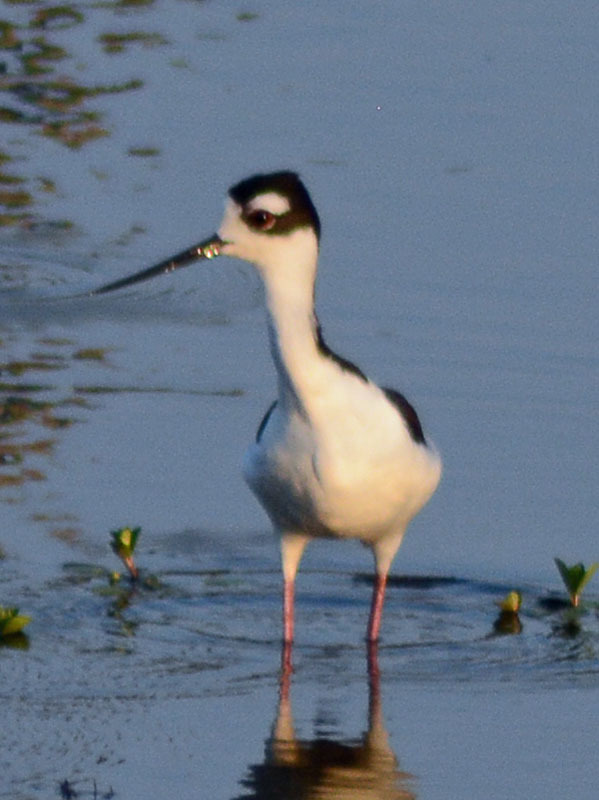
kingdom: Animalia
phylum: Chordata
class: Aves
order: Charadriiformes
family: Recurvirostridae
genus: Himantopus
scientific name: Himantopus mexicanus
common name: Black-necked stilt
